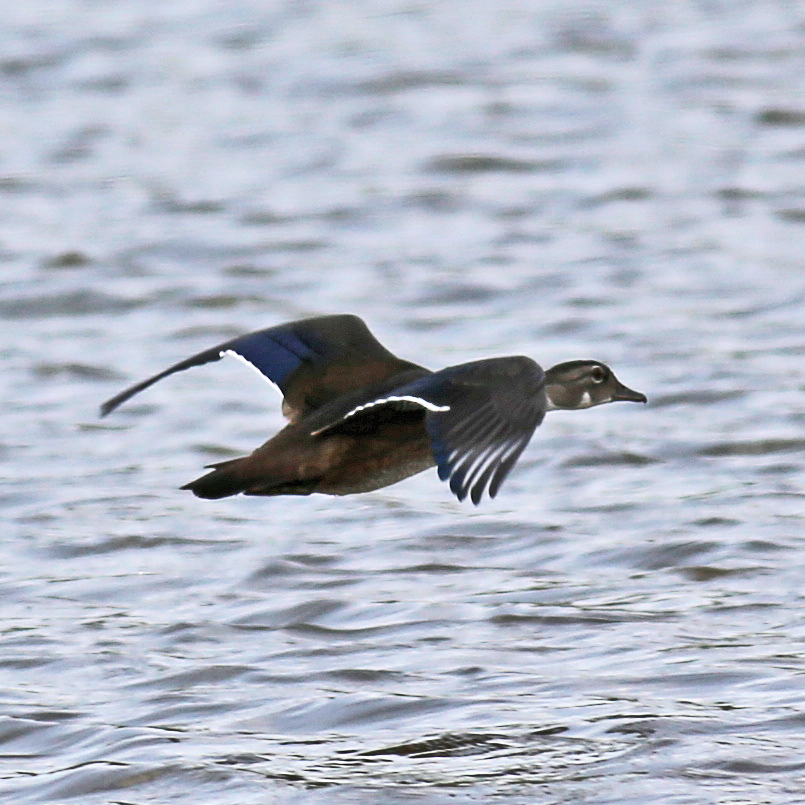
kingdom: Animalia
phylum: Chordata
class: Aves
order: Anseriformes
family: Anatidae
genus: Aix
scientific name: Aix sponsa
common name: Wood duck
